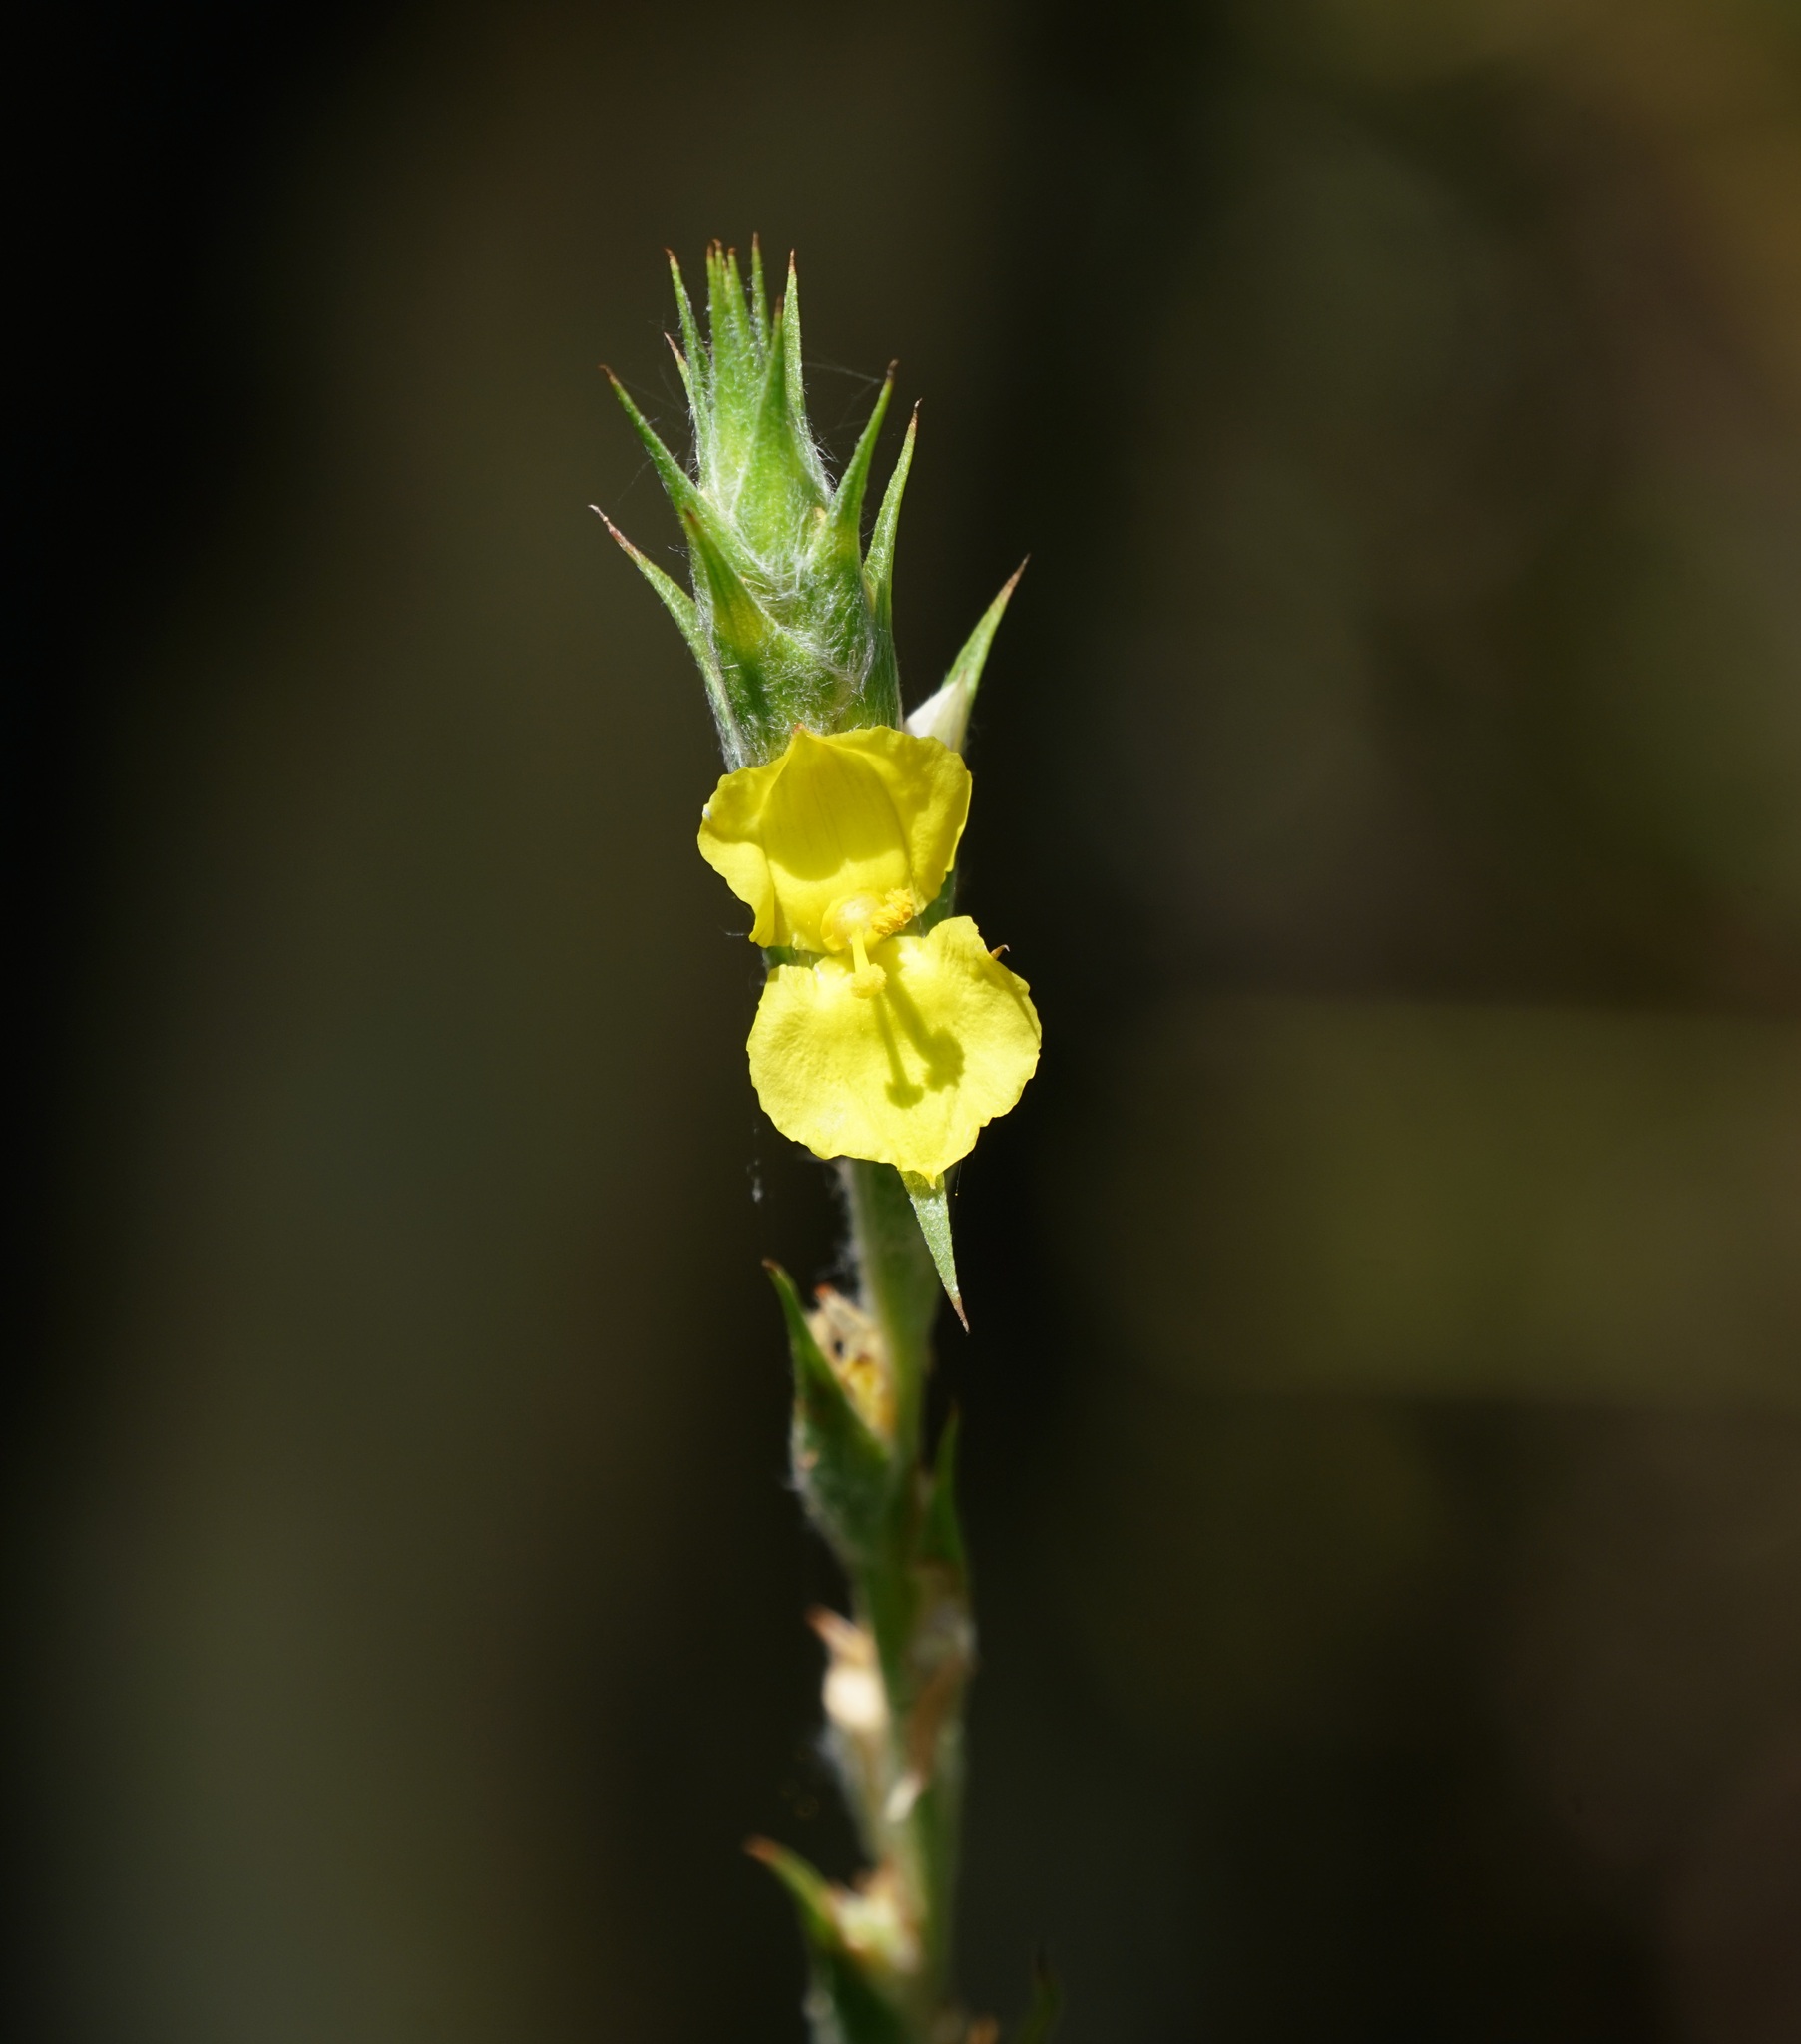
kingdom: Plantae
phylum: Tracheophyta
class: Liliopsida
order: Commelinales
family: Philydraceae
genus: Philydrum
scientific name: Philydrum lanuginosum
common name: Woolly frog's mouth
